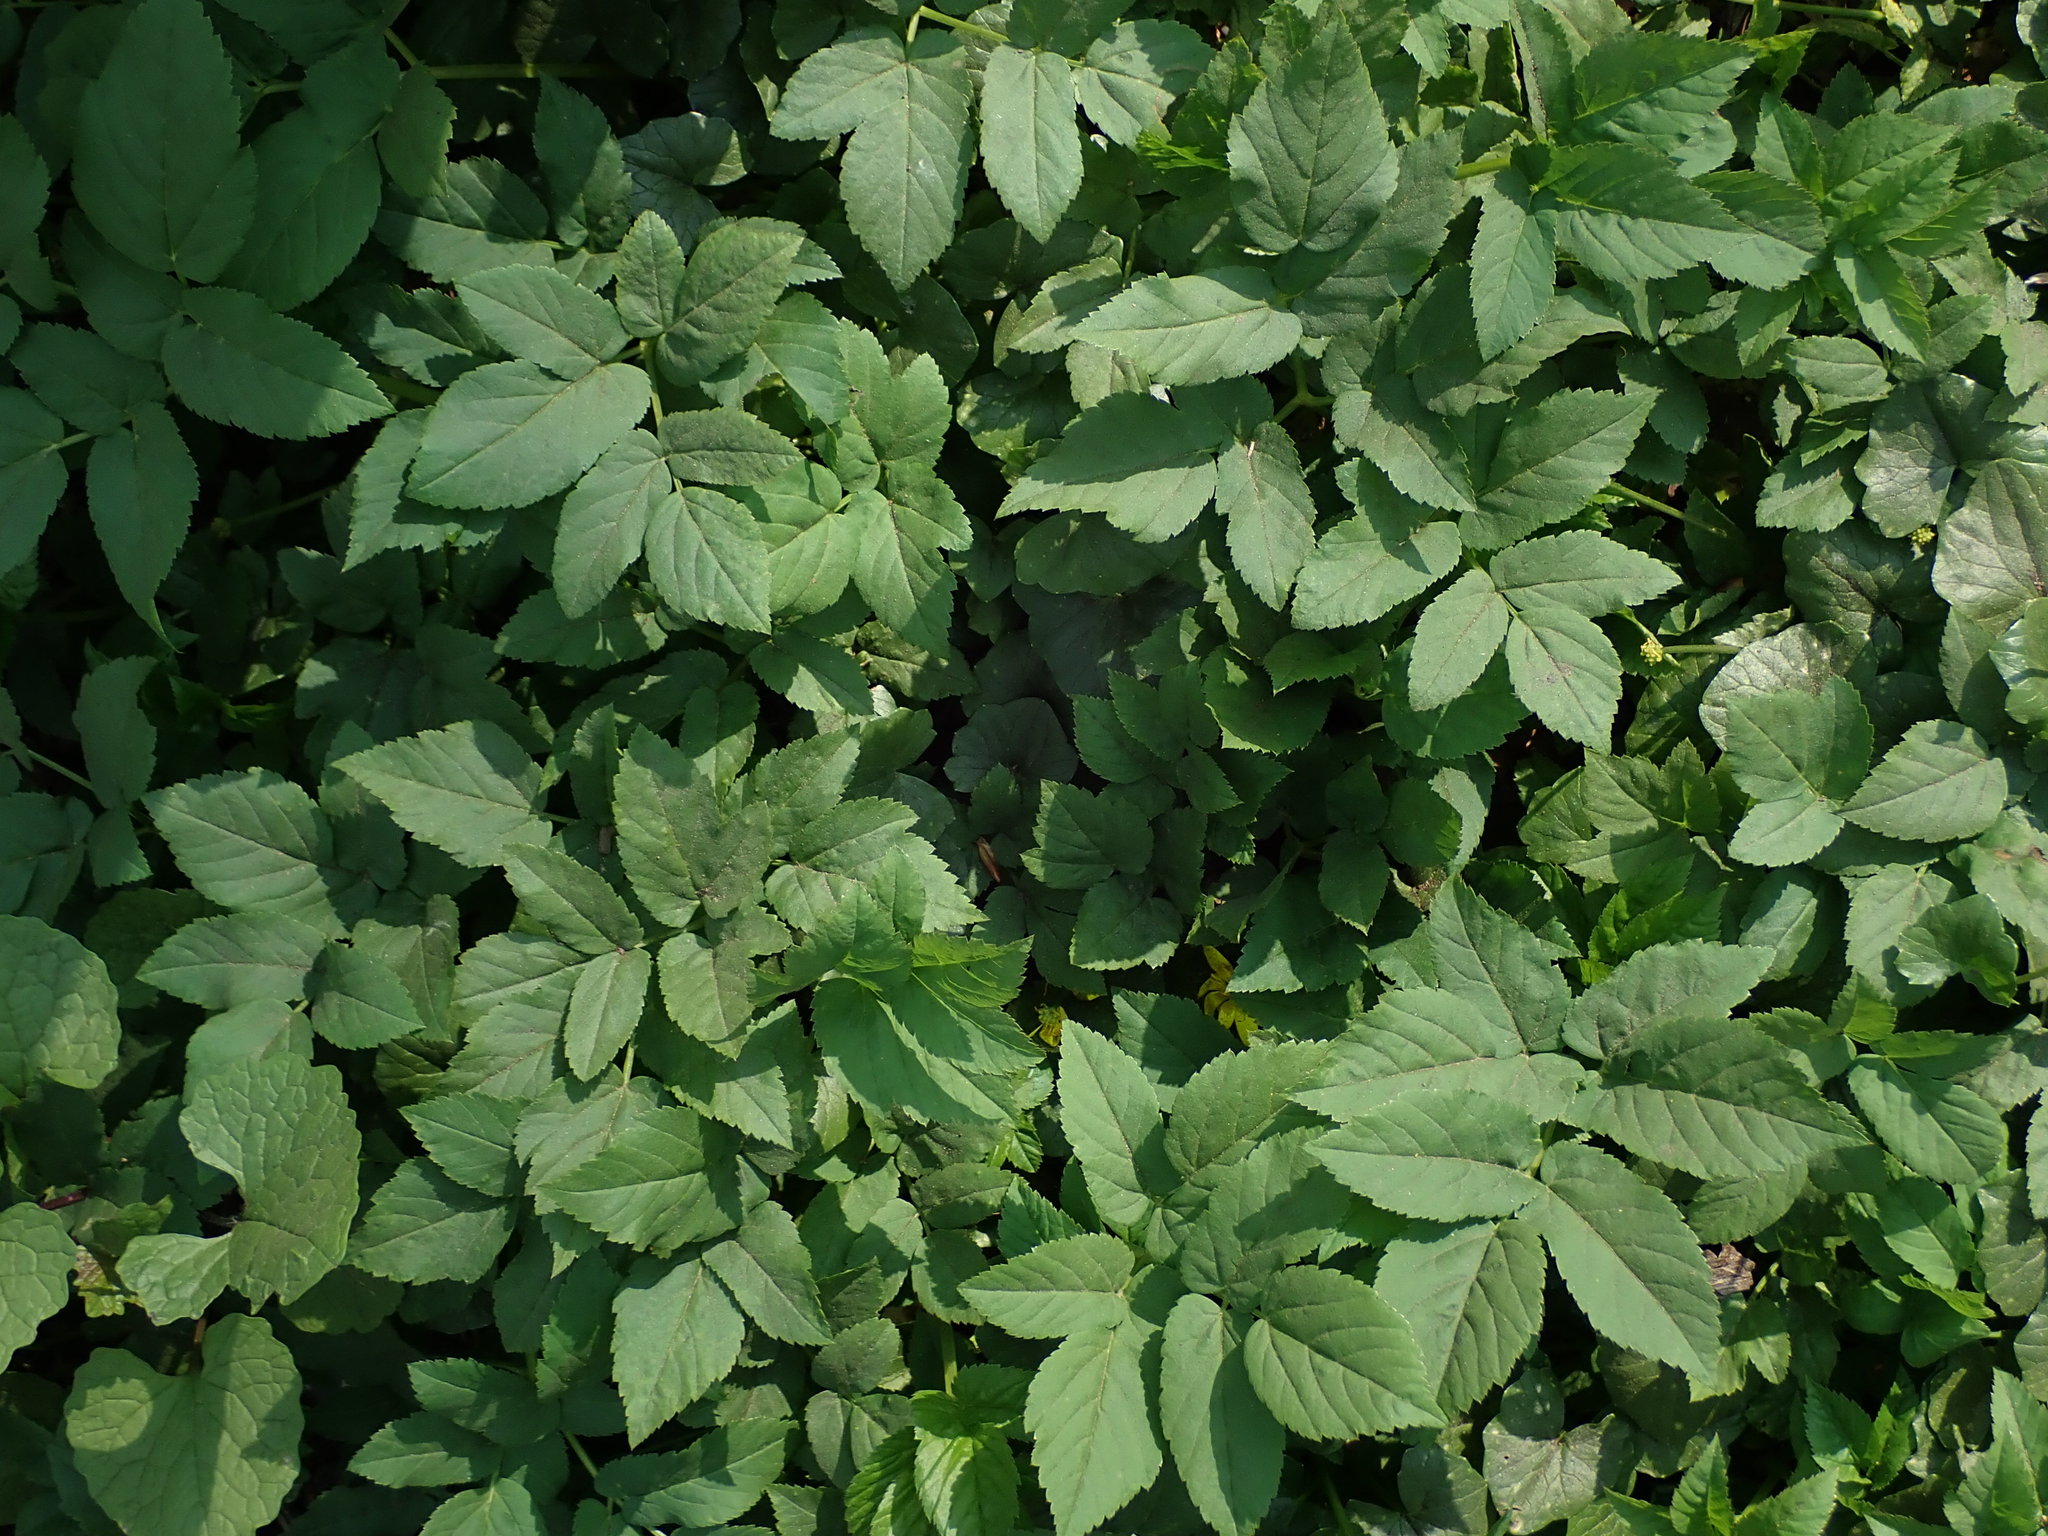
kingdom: Plantae
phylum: Tracheophyta
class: Magnoliopsida
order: Apiales
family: Apiaceae
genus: Aegopodium
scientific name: Aegopodium podagraria
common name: Ground-elder
